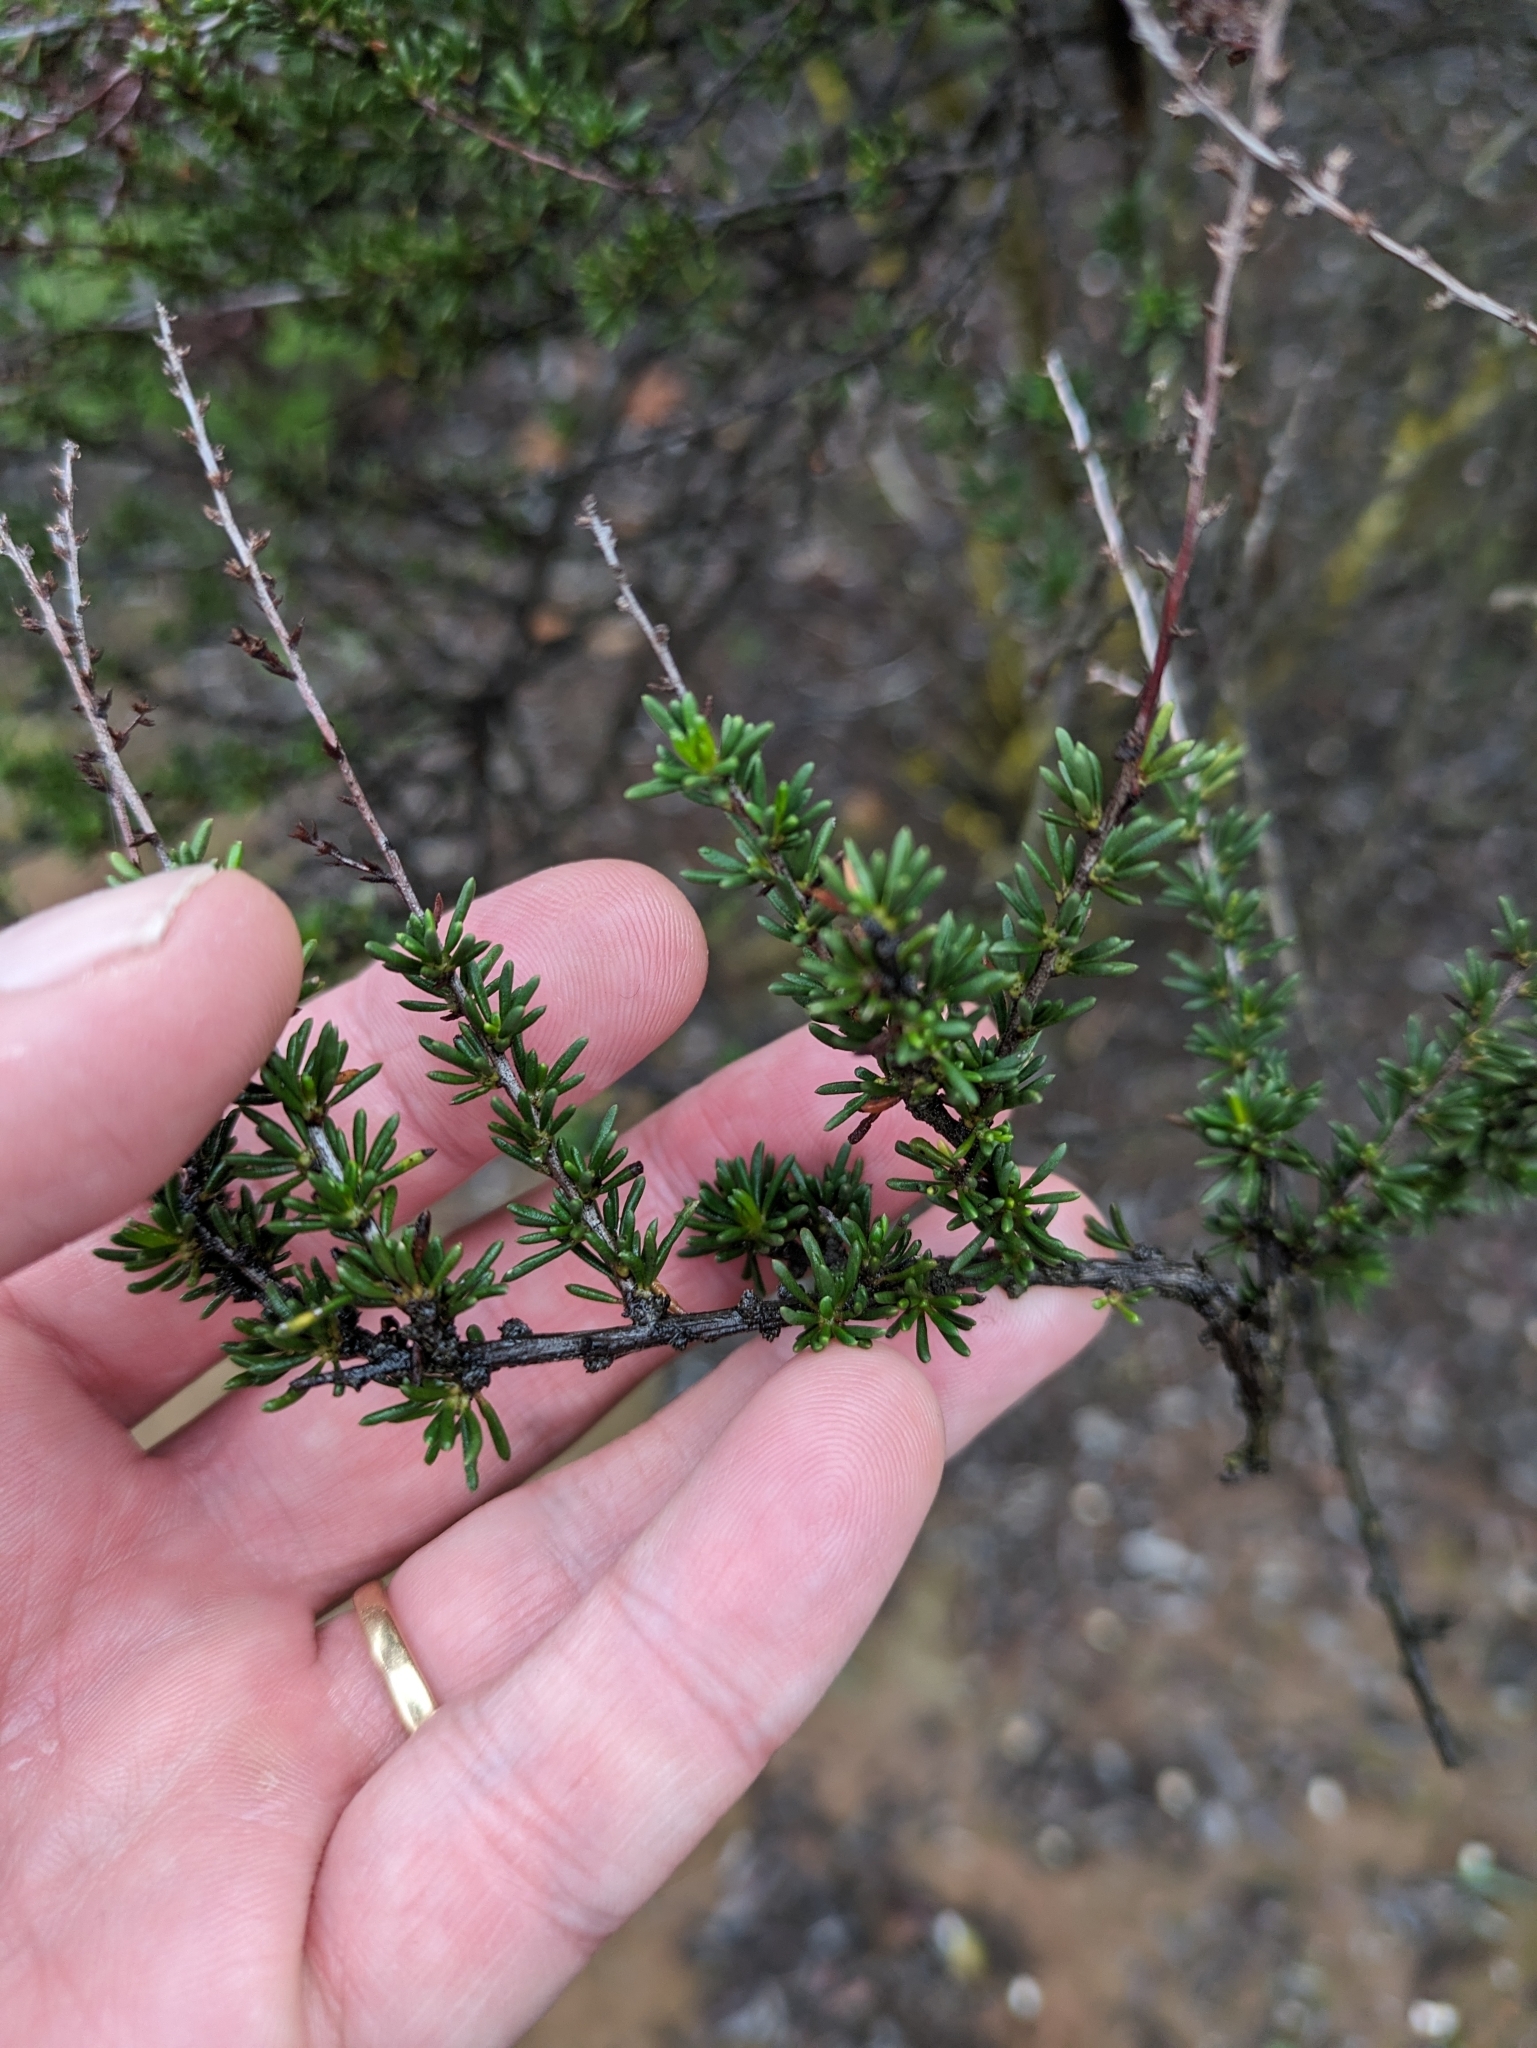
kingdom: Plantae
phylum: Tracheophyta
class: Magnoliopsida
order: Rosales
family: Rosaceae
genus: Adenostoma
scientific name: Adenostoma fasciculatum
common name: Chamise
